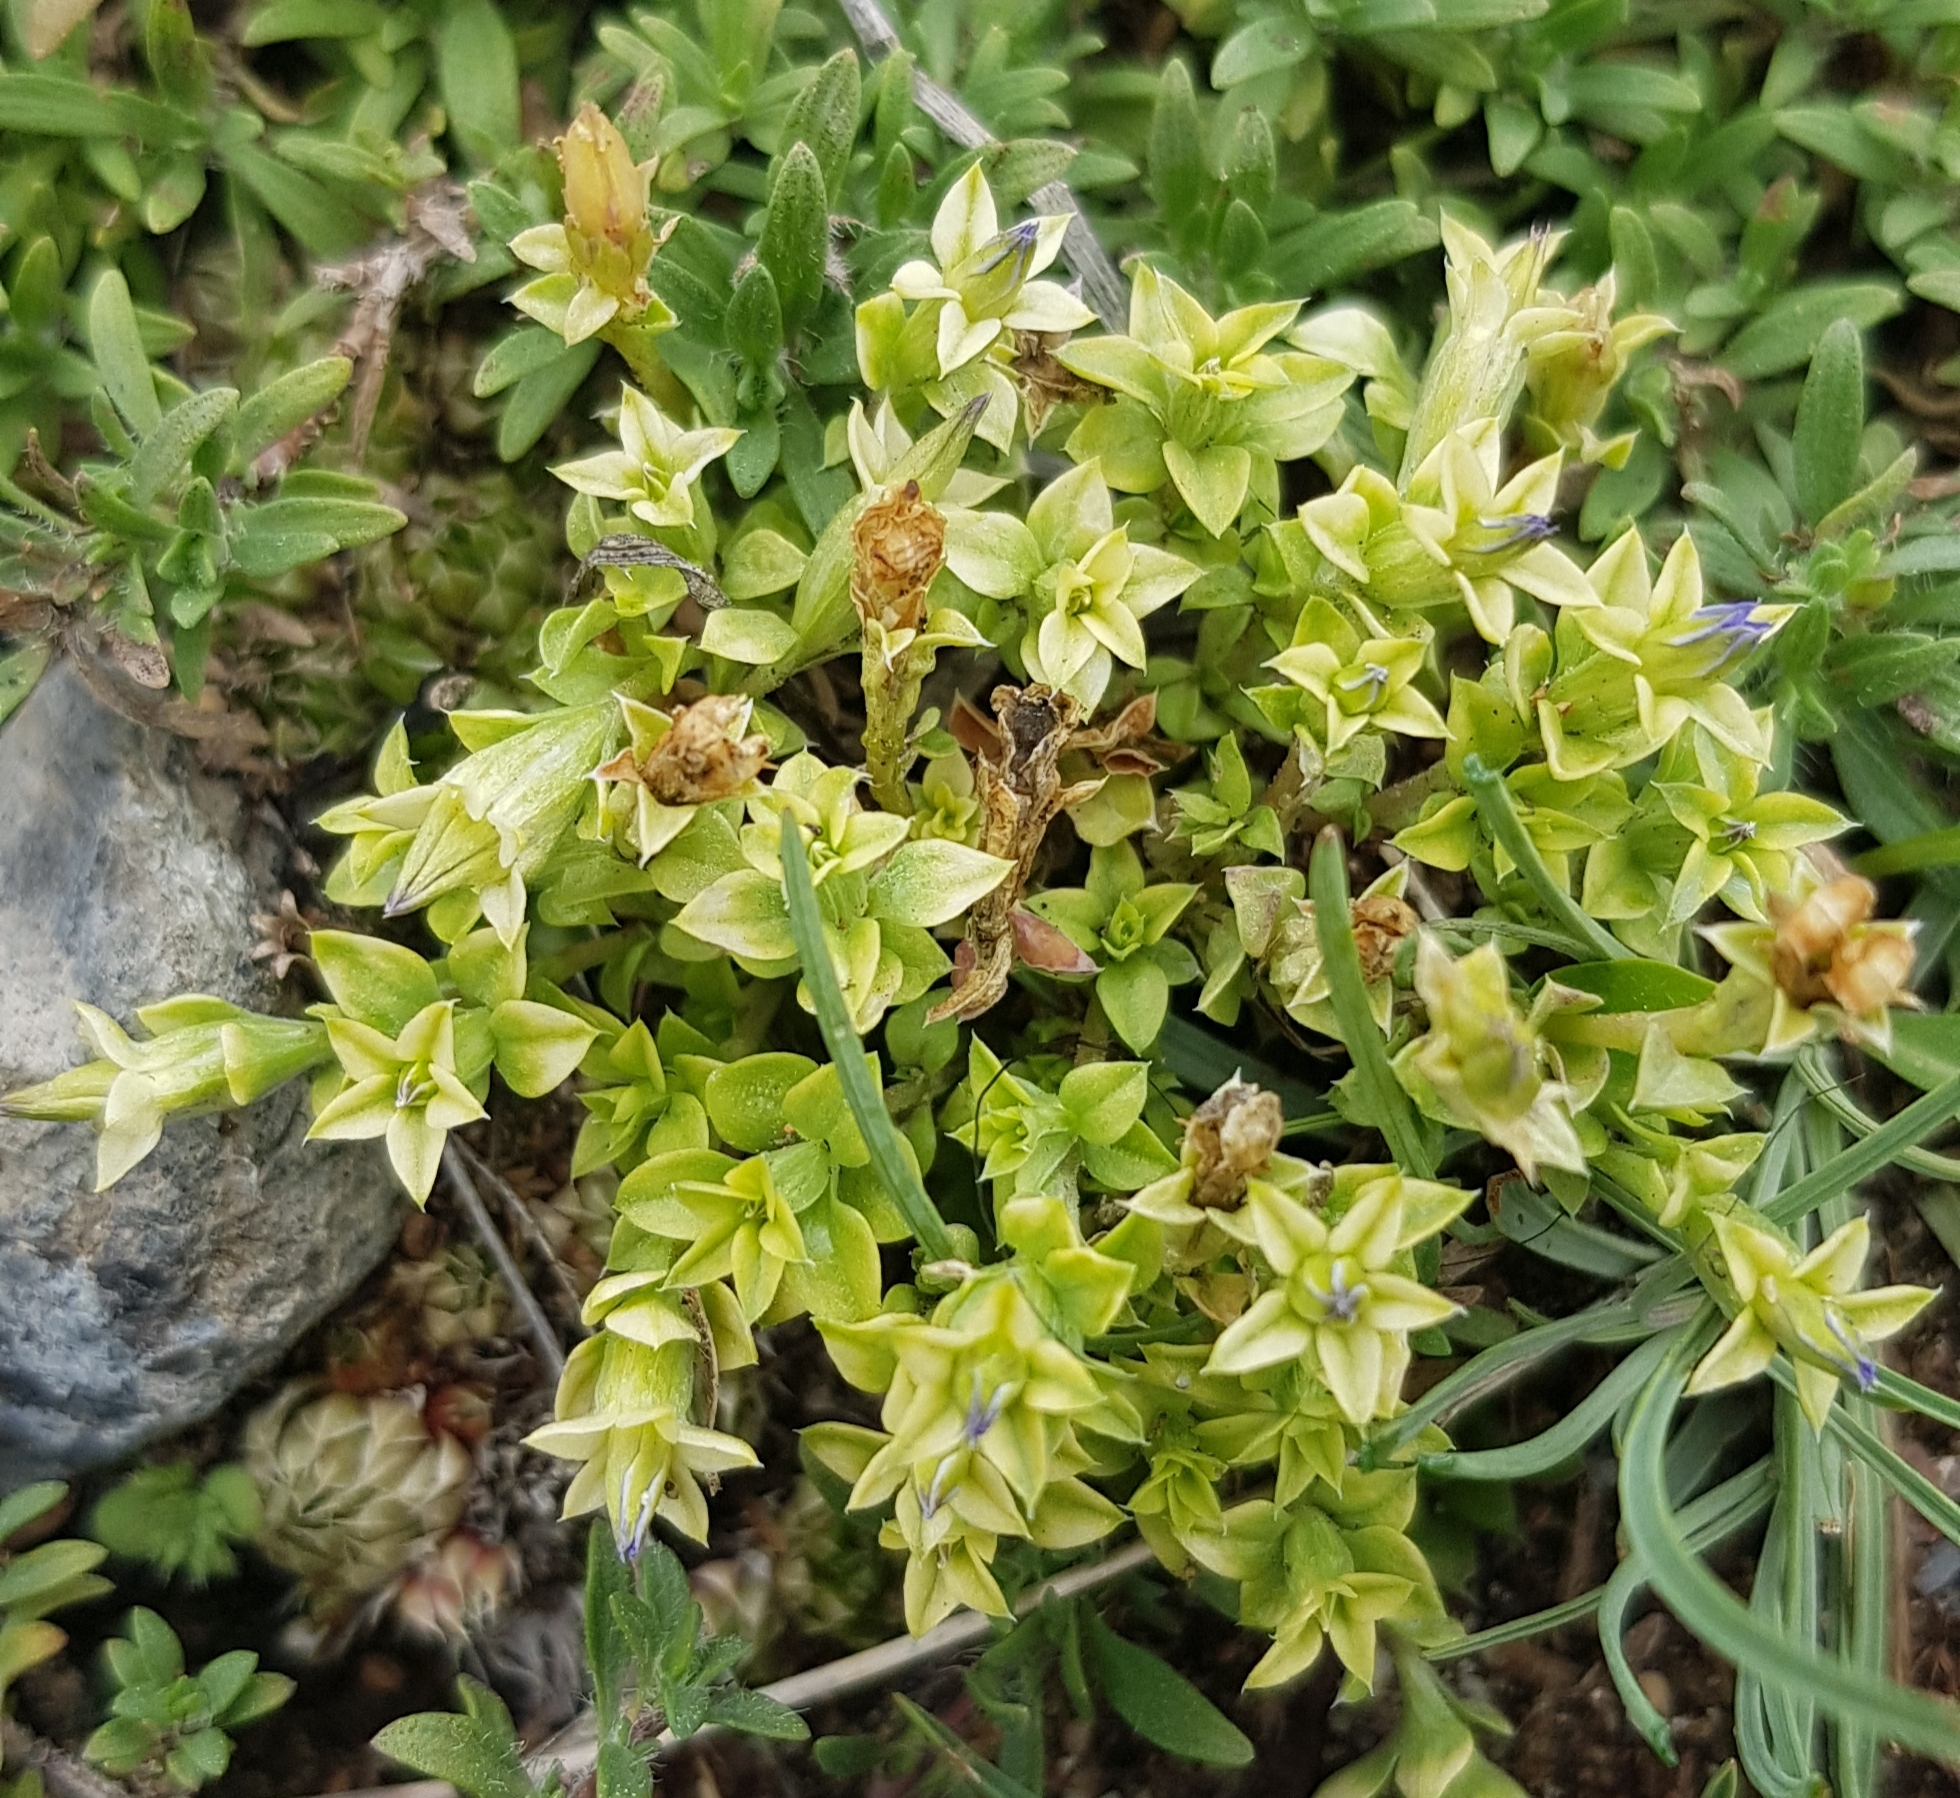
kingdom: Plantae
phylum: Tracheophyta
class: Magnoliopsida
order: Gentianales
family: Gentianaceae
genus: Gentiana
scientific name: Gentiana squarrosa
